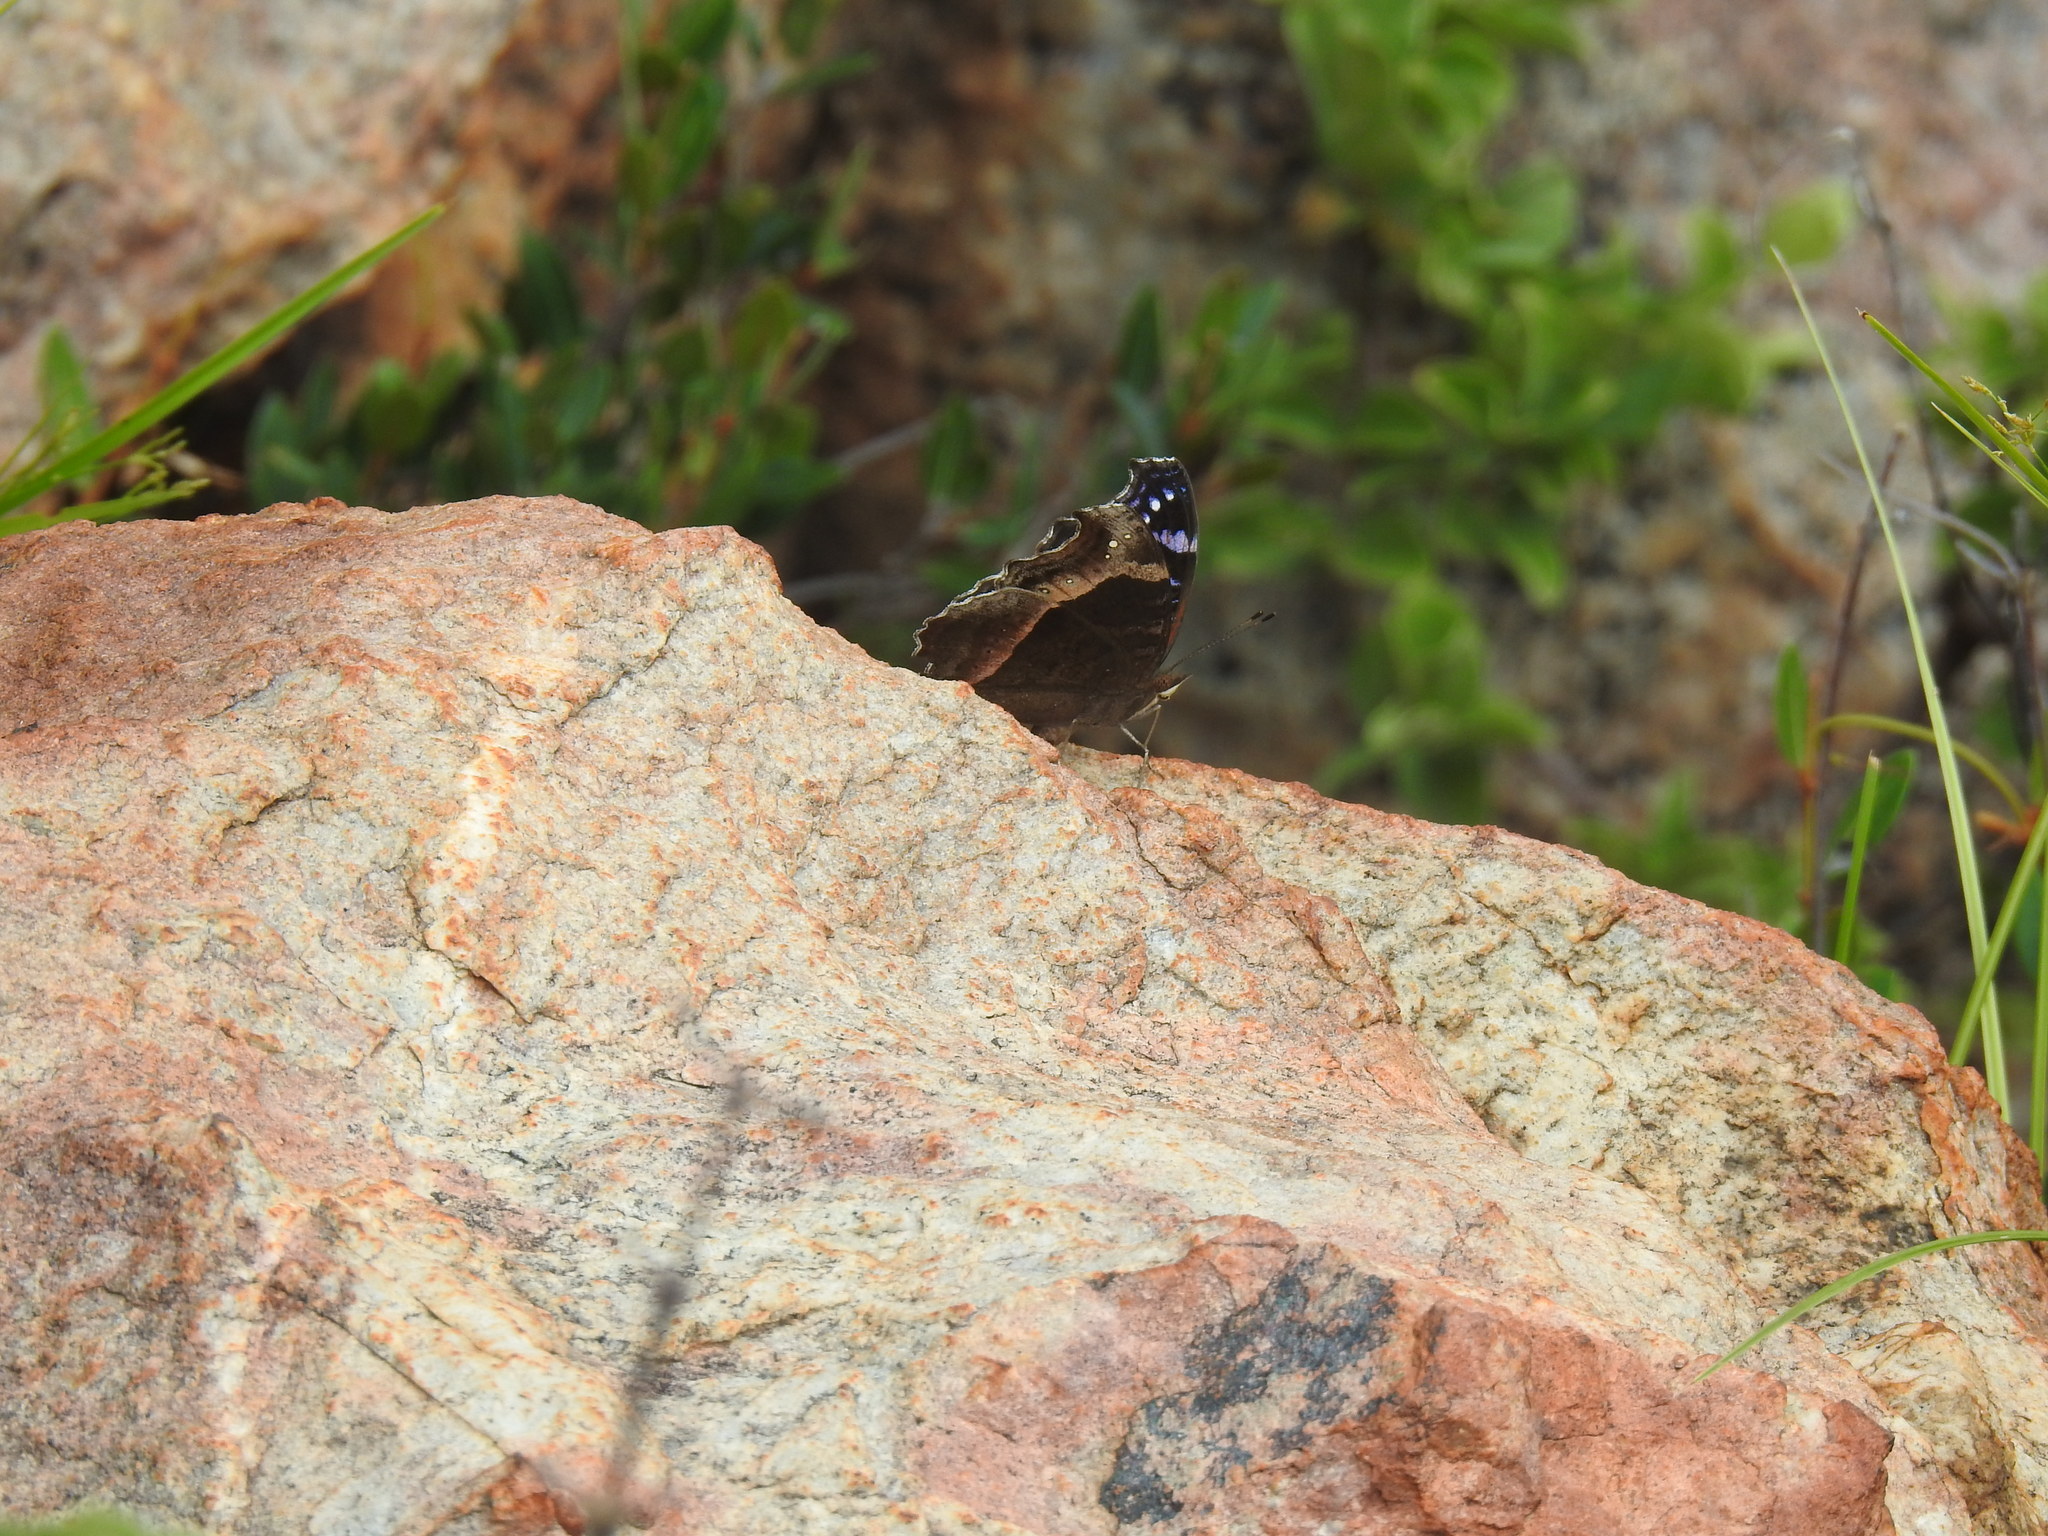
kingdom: Animalia
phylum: Arthropoda
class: Insecta
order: Lepidoptera
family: Nymphalidae
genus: Junonia
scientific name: Junonia archesia
